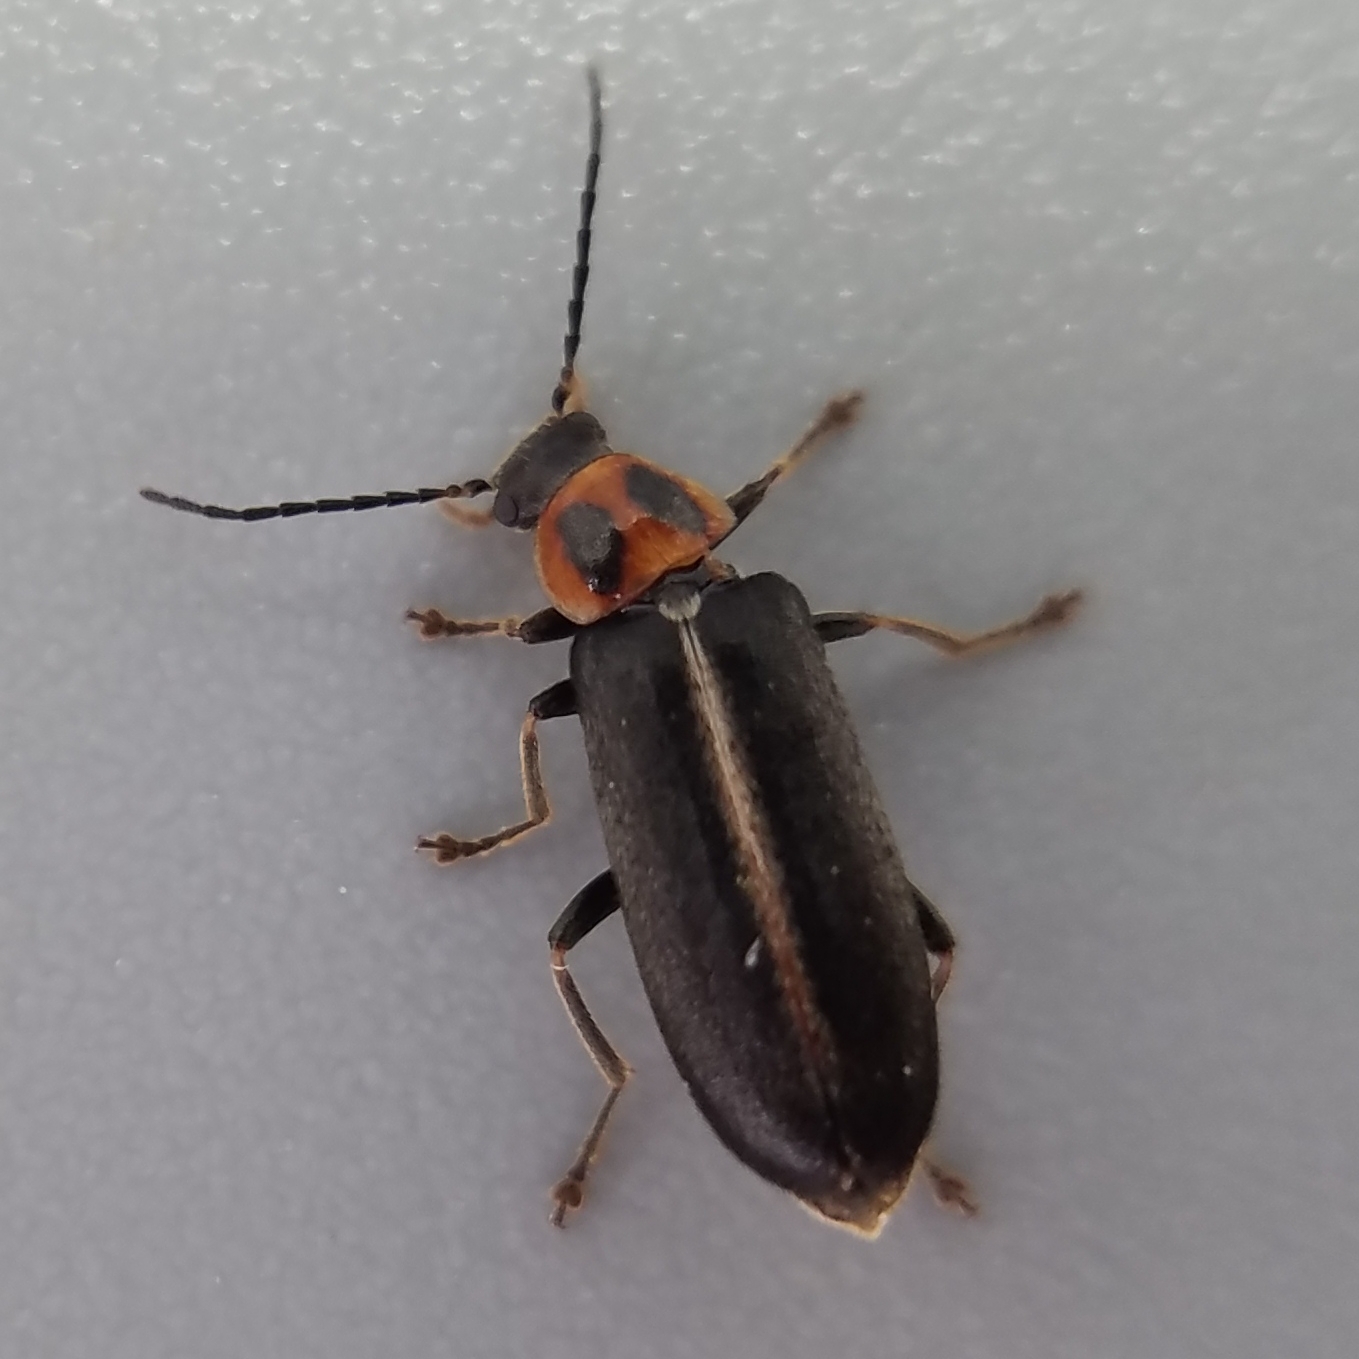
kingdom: Animalia
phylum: Arthropoda
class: Insecta
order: Coleoptera
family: Melandryidae
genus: Osphya
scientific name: Osphya varians
